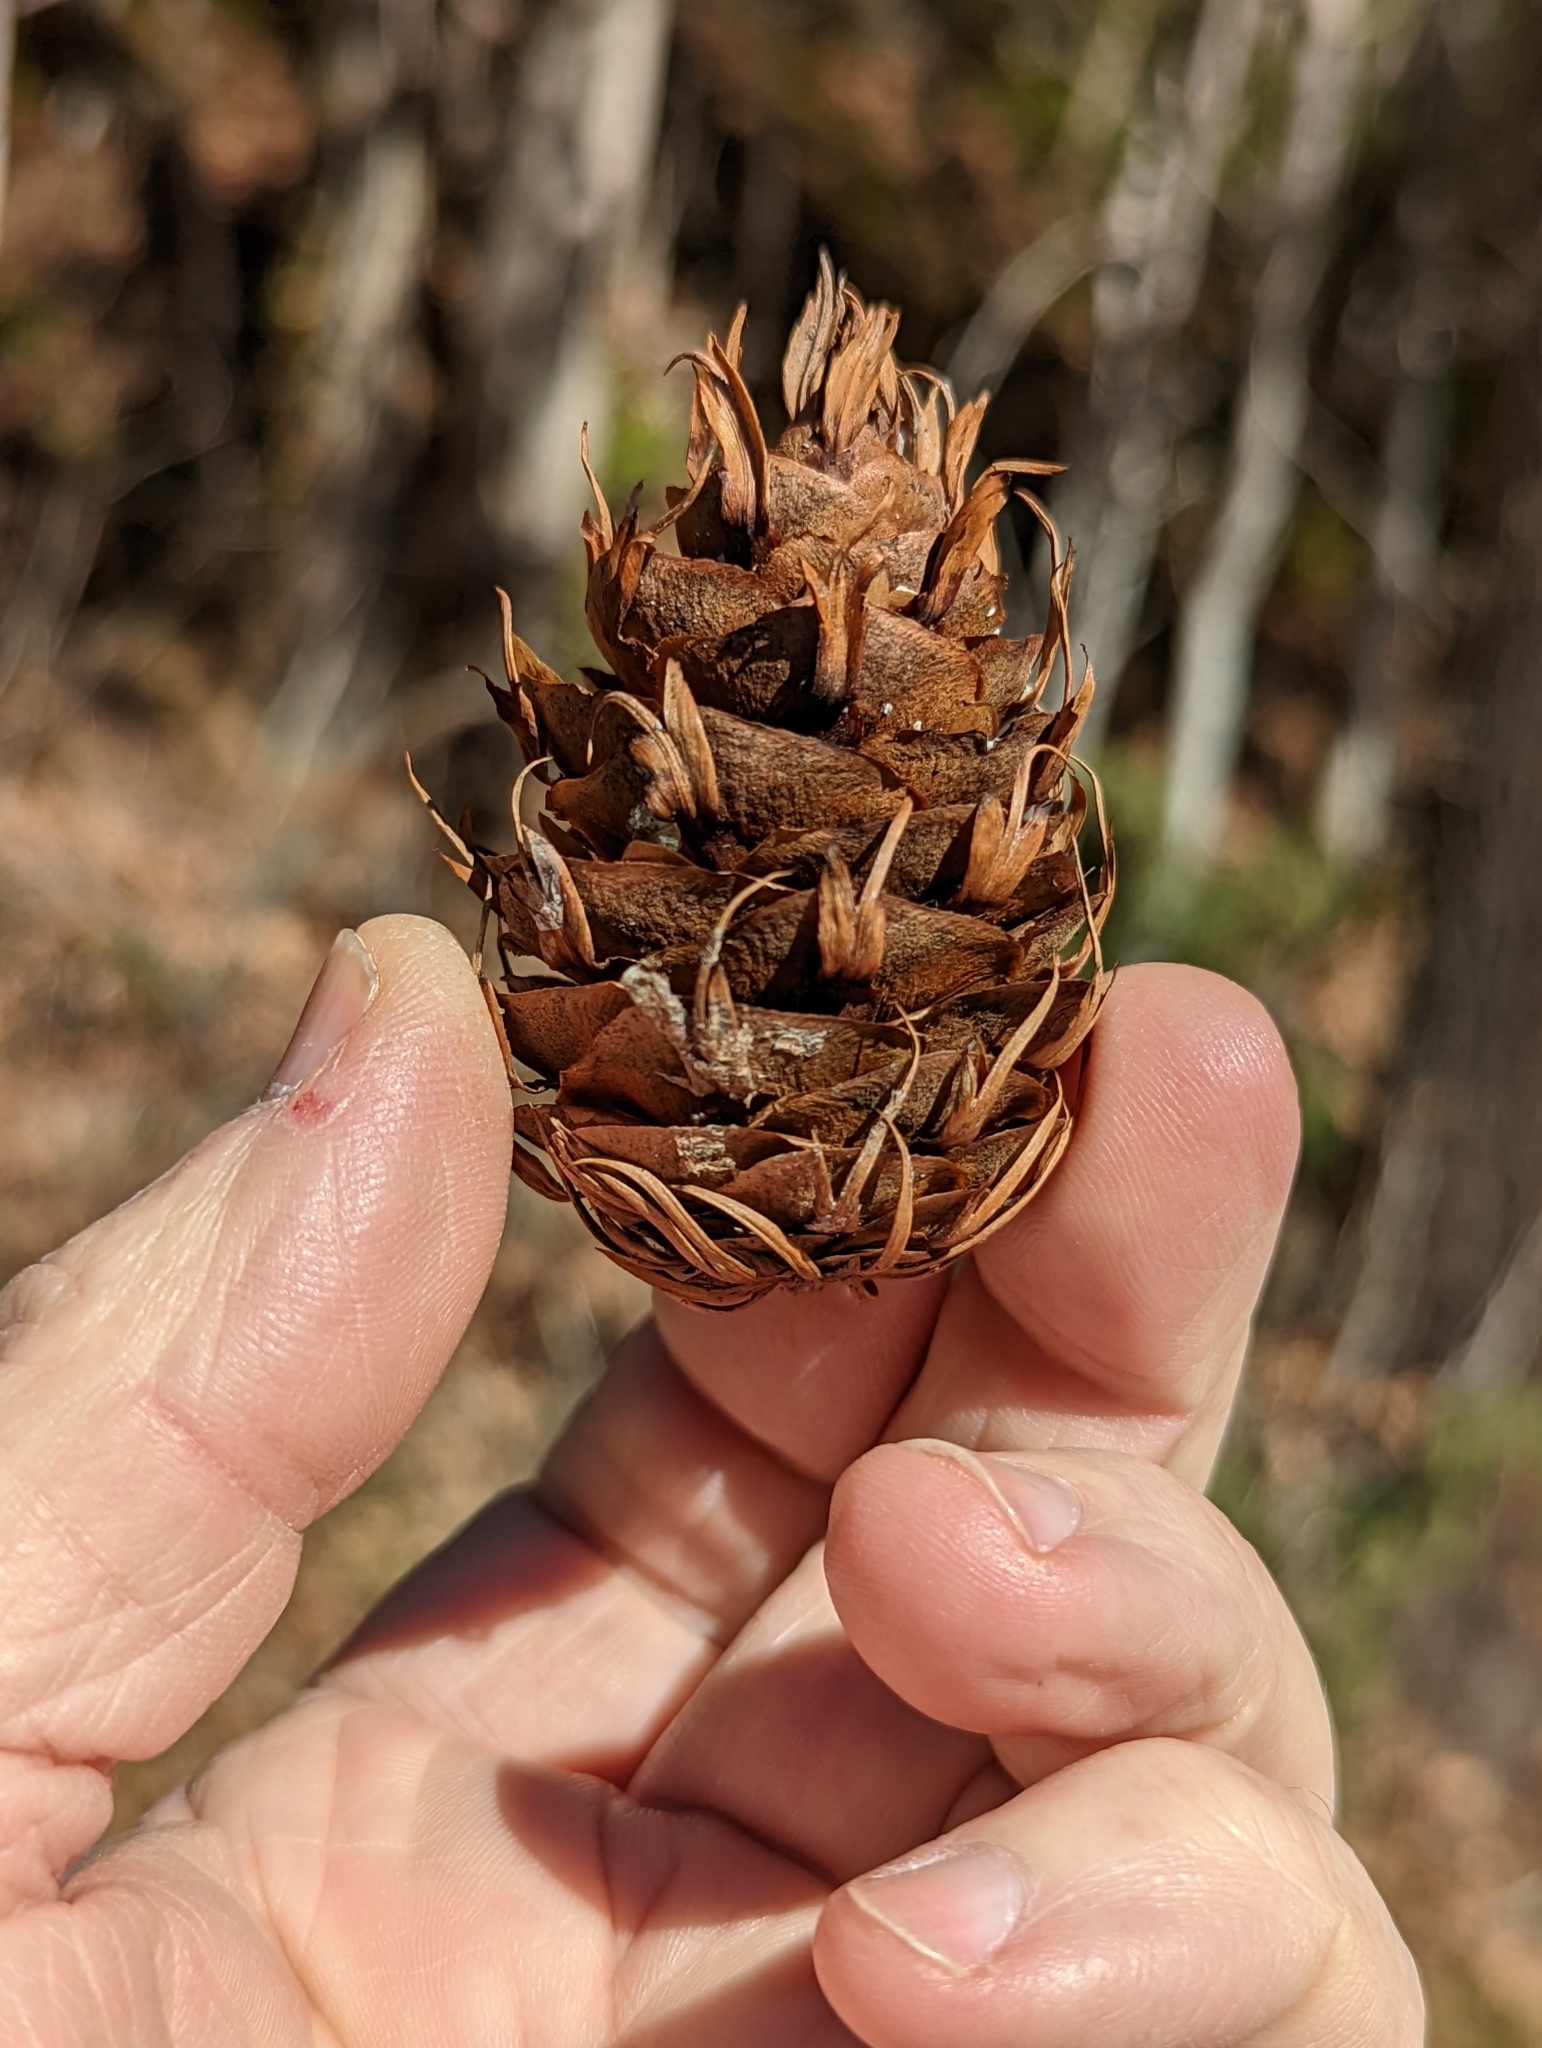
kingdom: Plantae
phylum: Tracheophyta
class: Pinopsida
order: Pinales
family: Pinaceae
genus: Pseudotsuga
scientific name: Pseudotsuga menziesii
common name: Douglas fir
